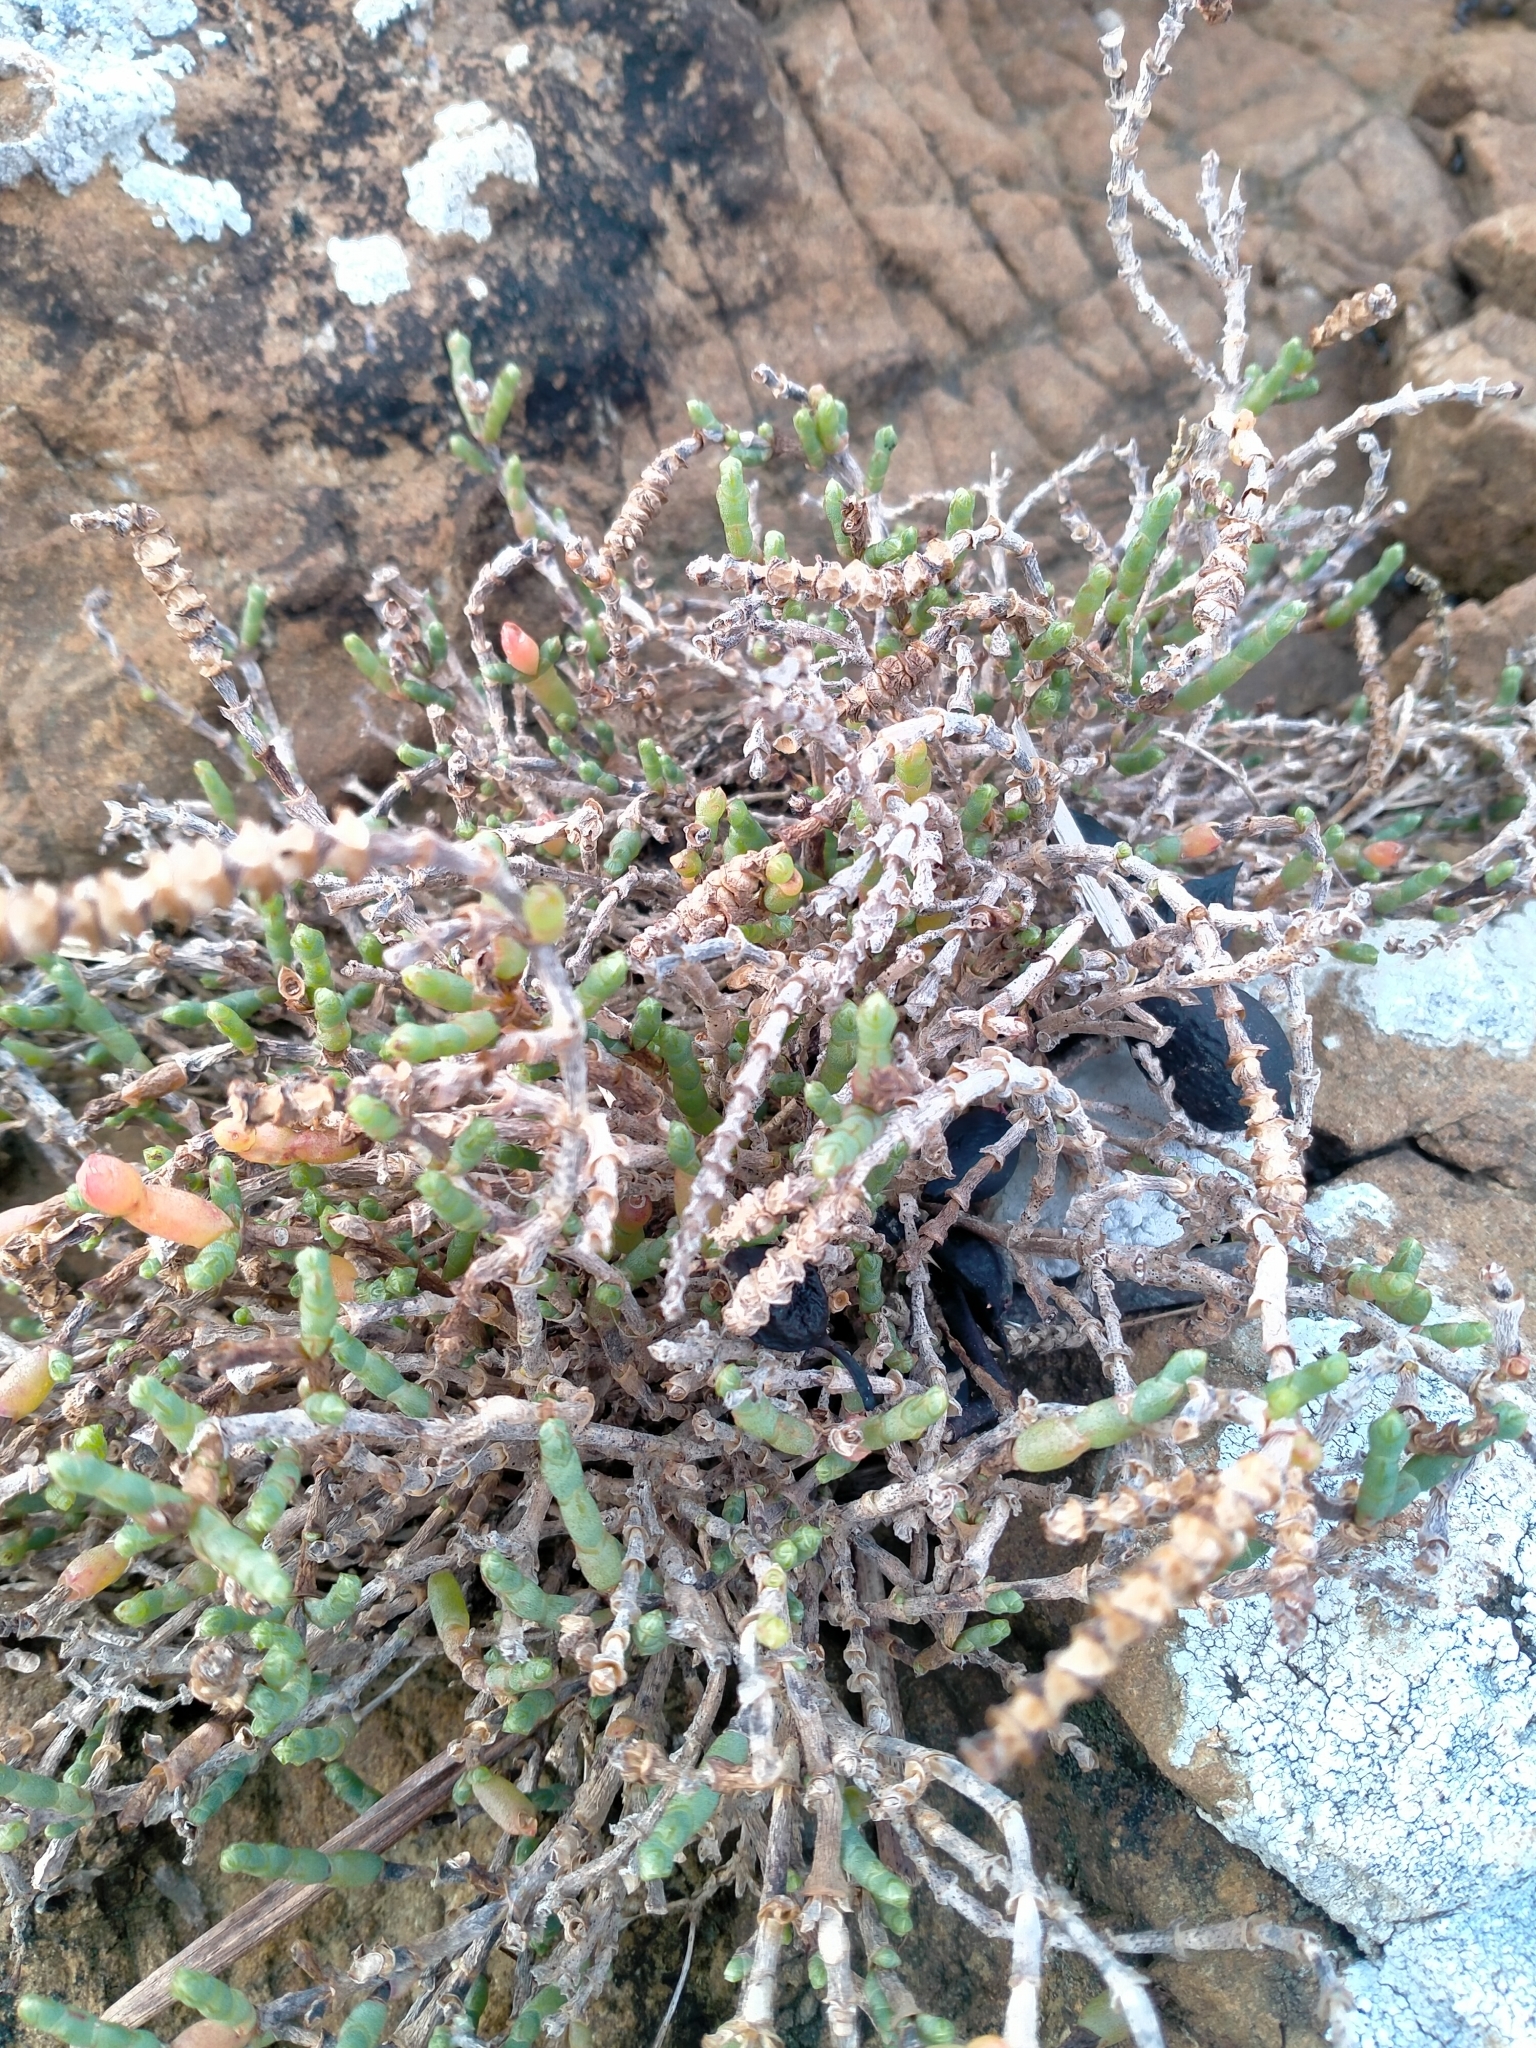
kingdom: Plantae
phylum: Tracheophyta
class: Magnoliopsida
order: Caryophyllales
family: Amaranthaceae
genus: Salicornia
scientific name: Salicornia quinqueflora
